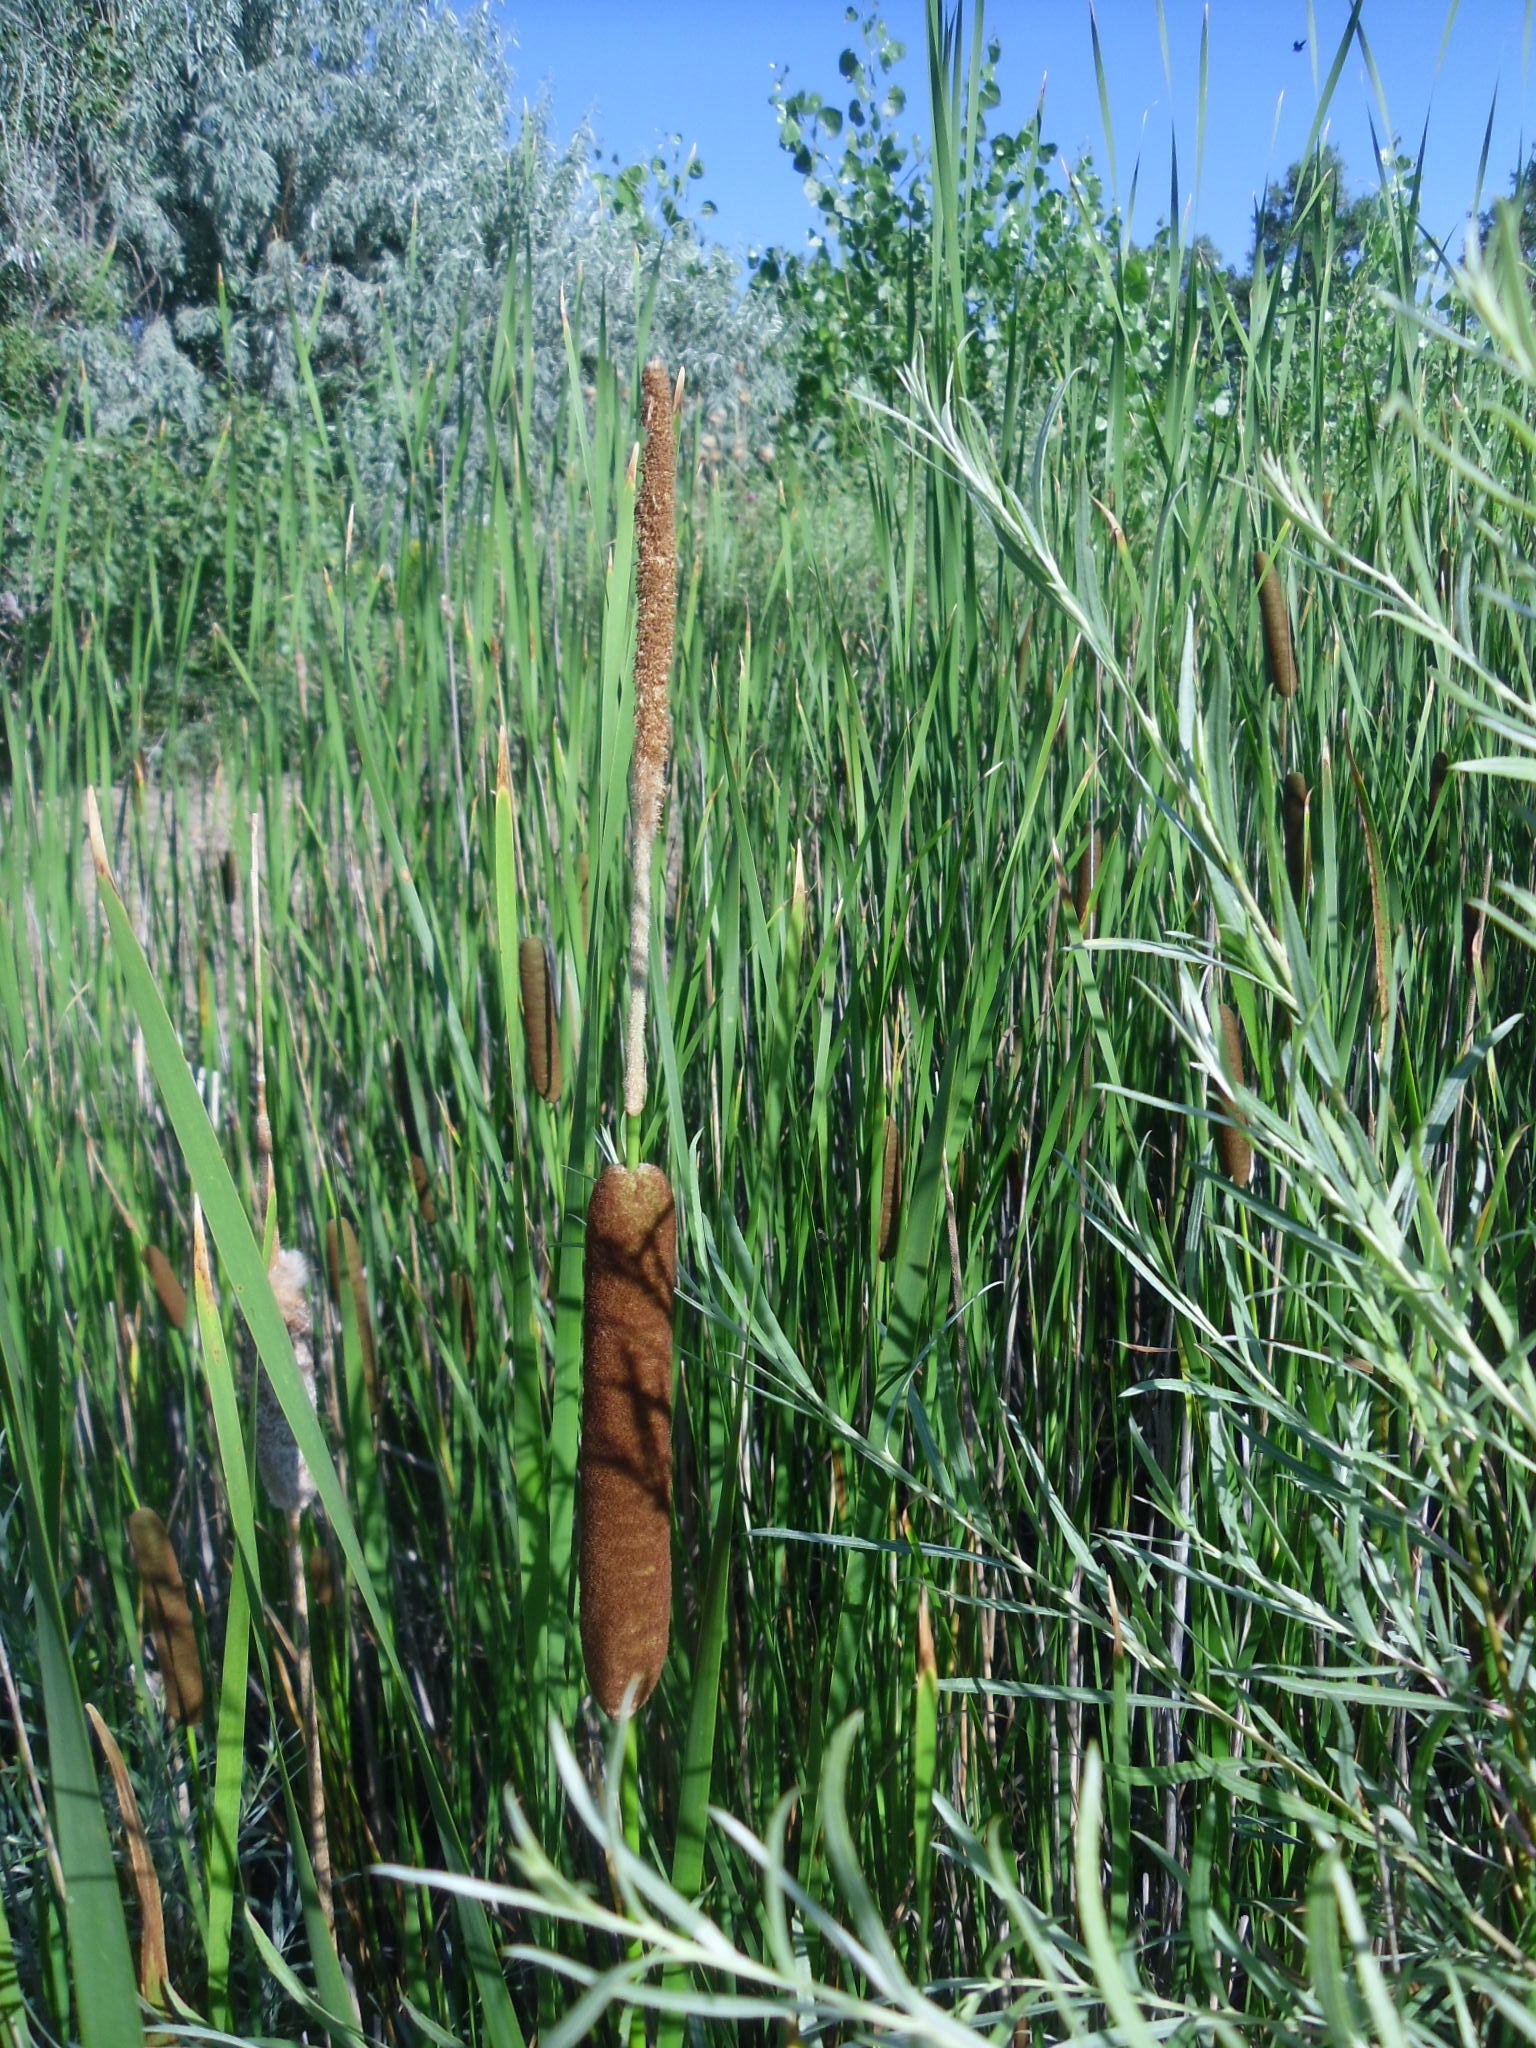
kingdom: Plantae
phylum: Tracheophyta
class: Liliopsida
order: Poales
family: Typhaceae
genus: Typha
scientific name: Typha angustifolia
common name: Lesser bulrush
